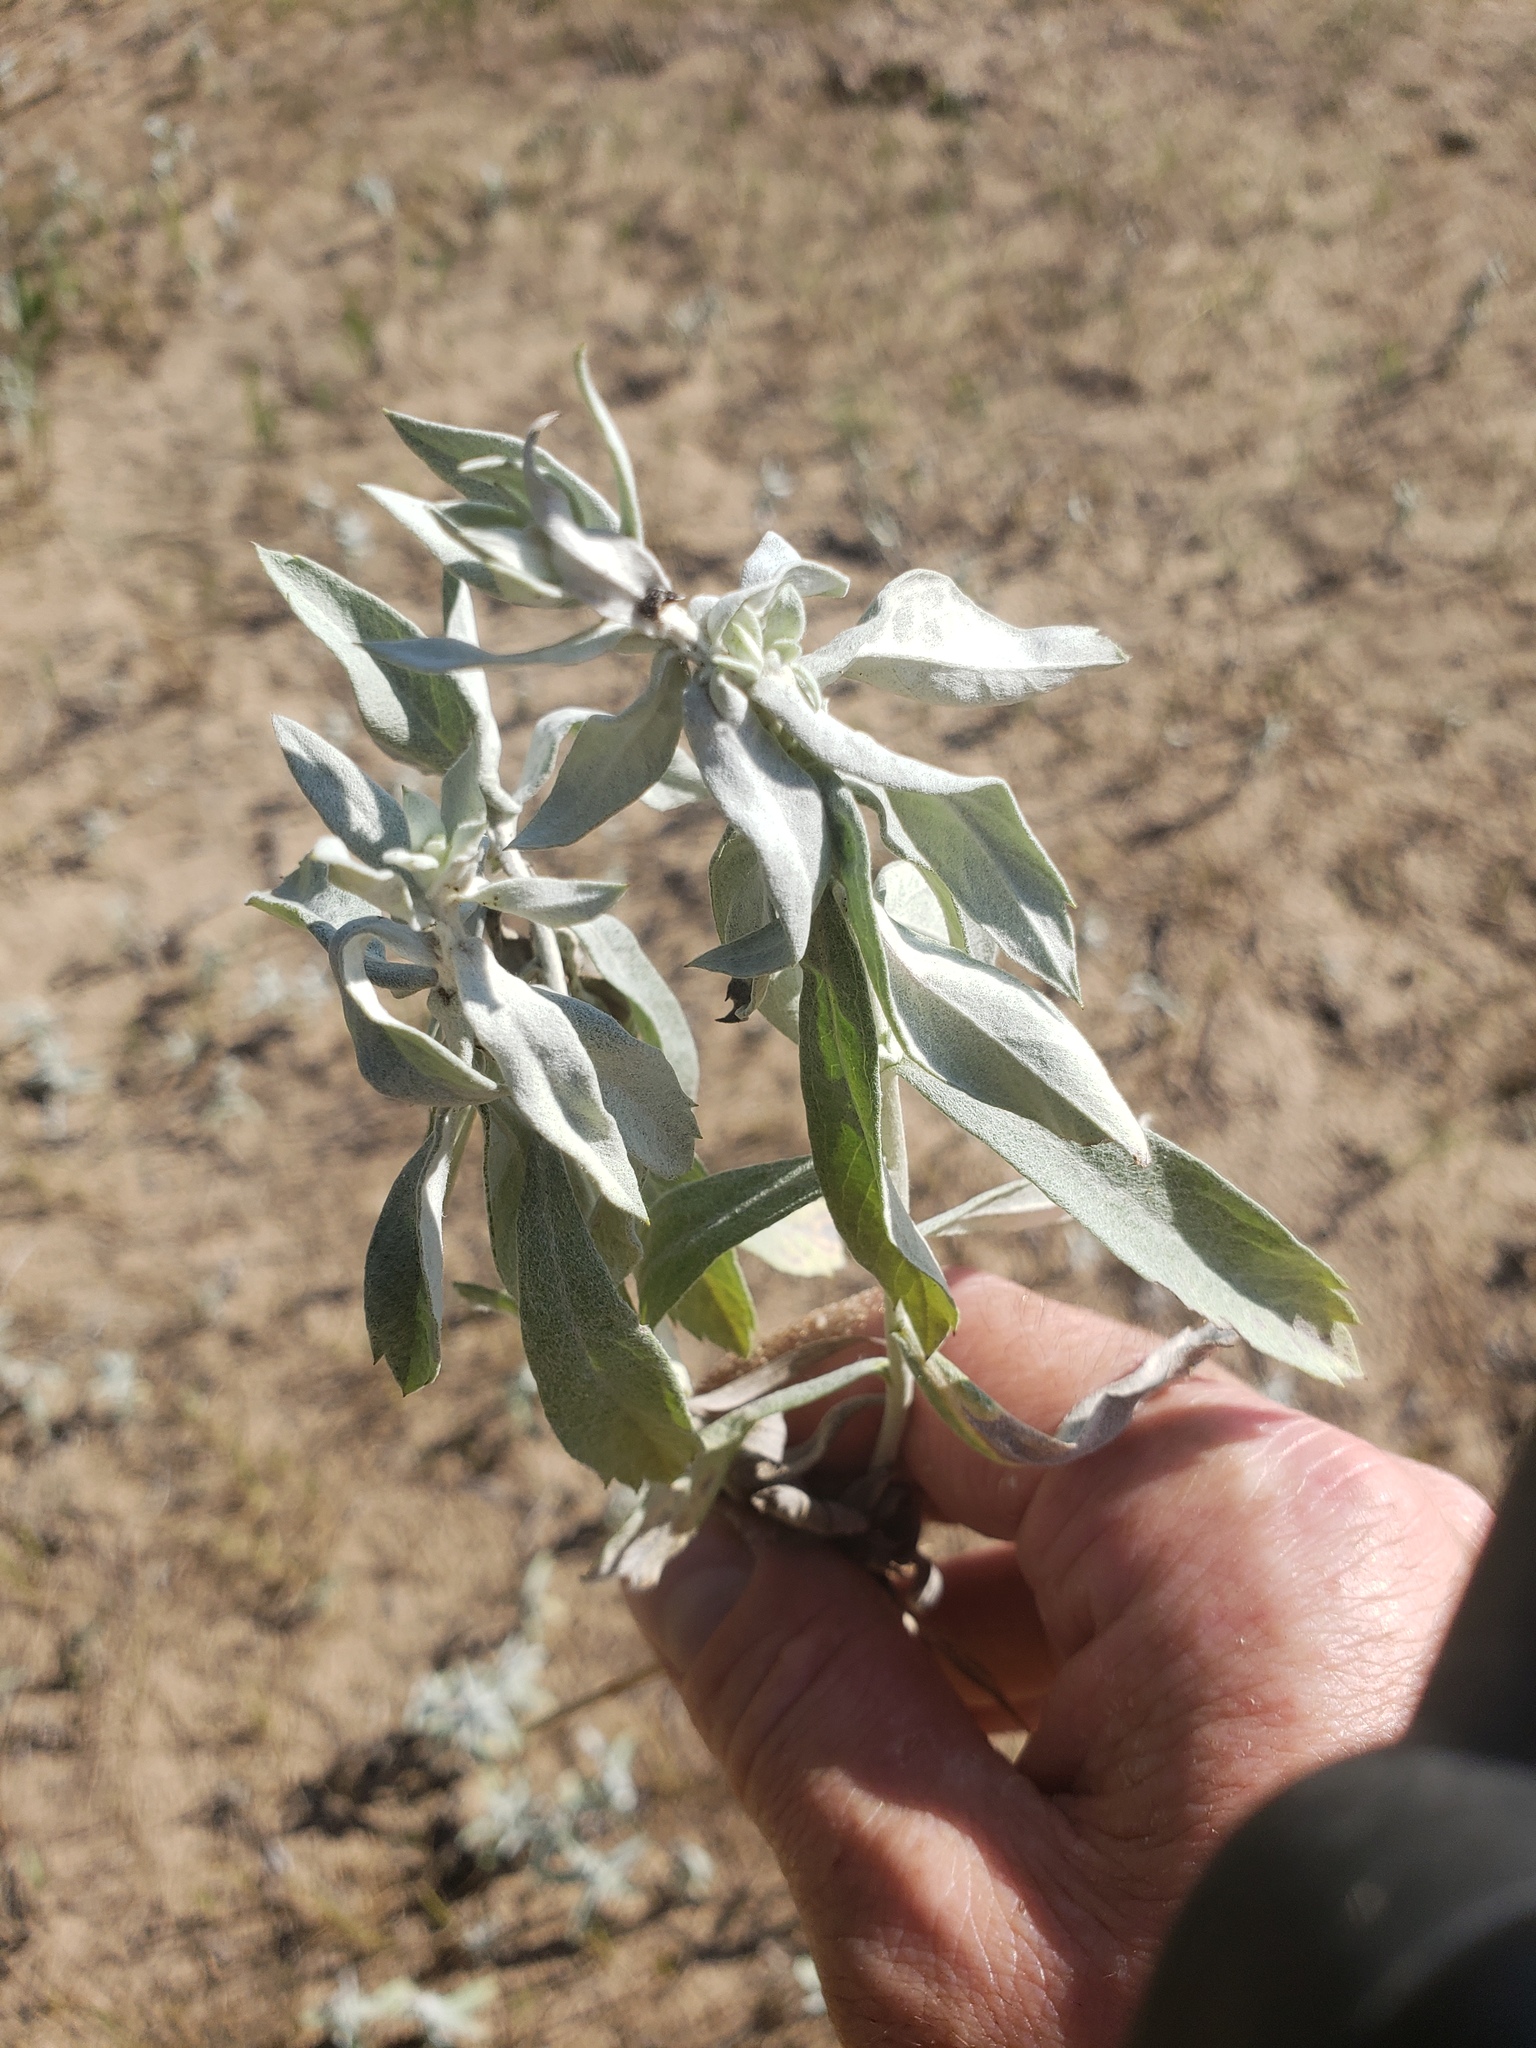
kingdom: Plantae
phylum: Tracheophyta
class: Magnoliopsida
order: Asterales
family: Asteraceae
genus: Artemisia
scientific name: Artemisia ludoviciana
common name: Western mugwort
